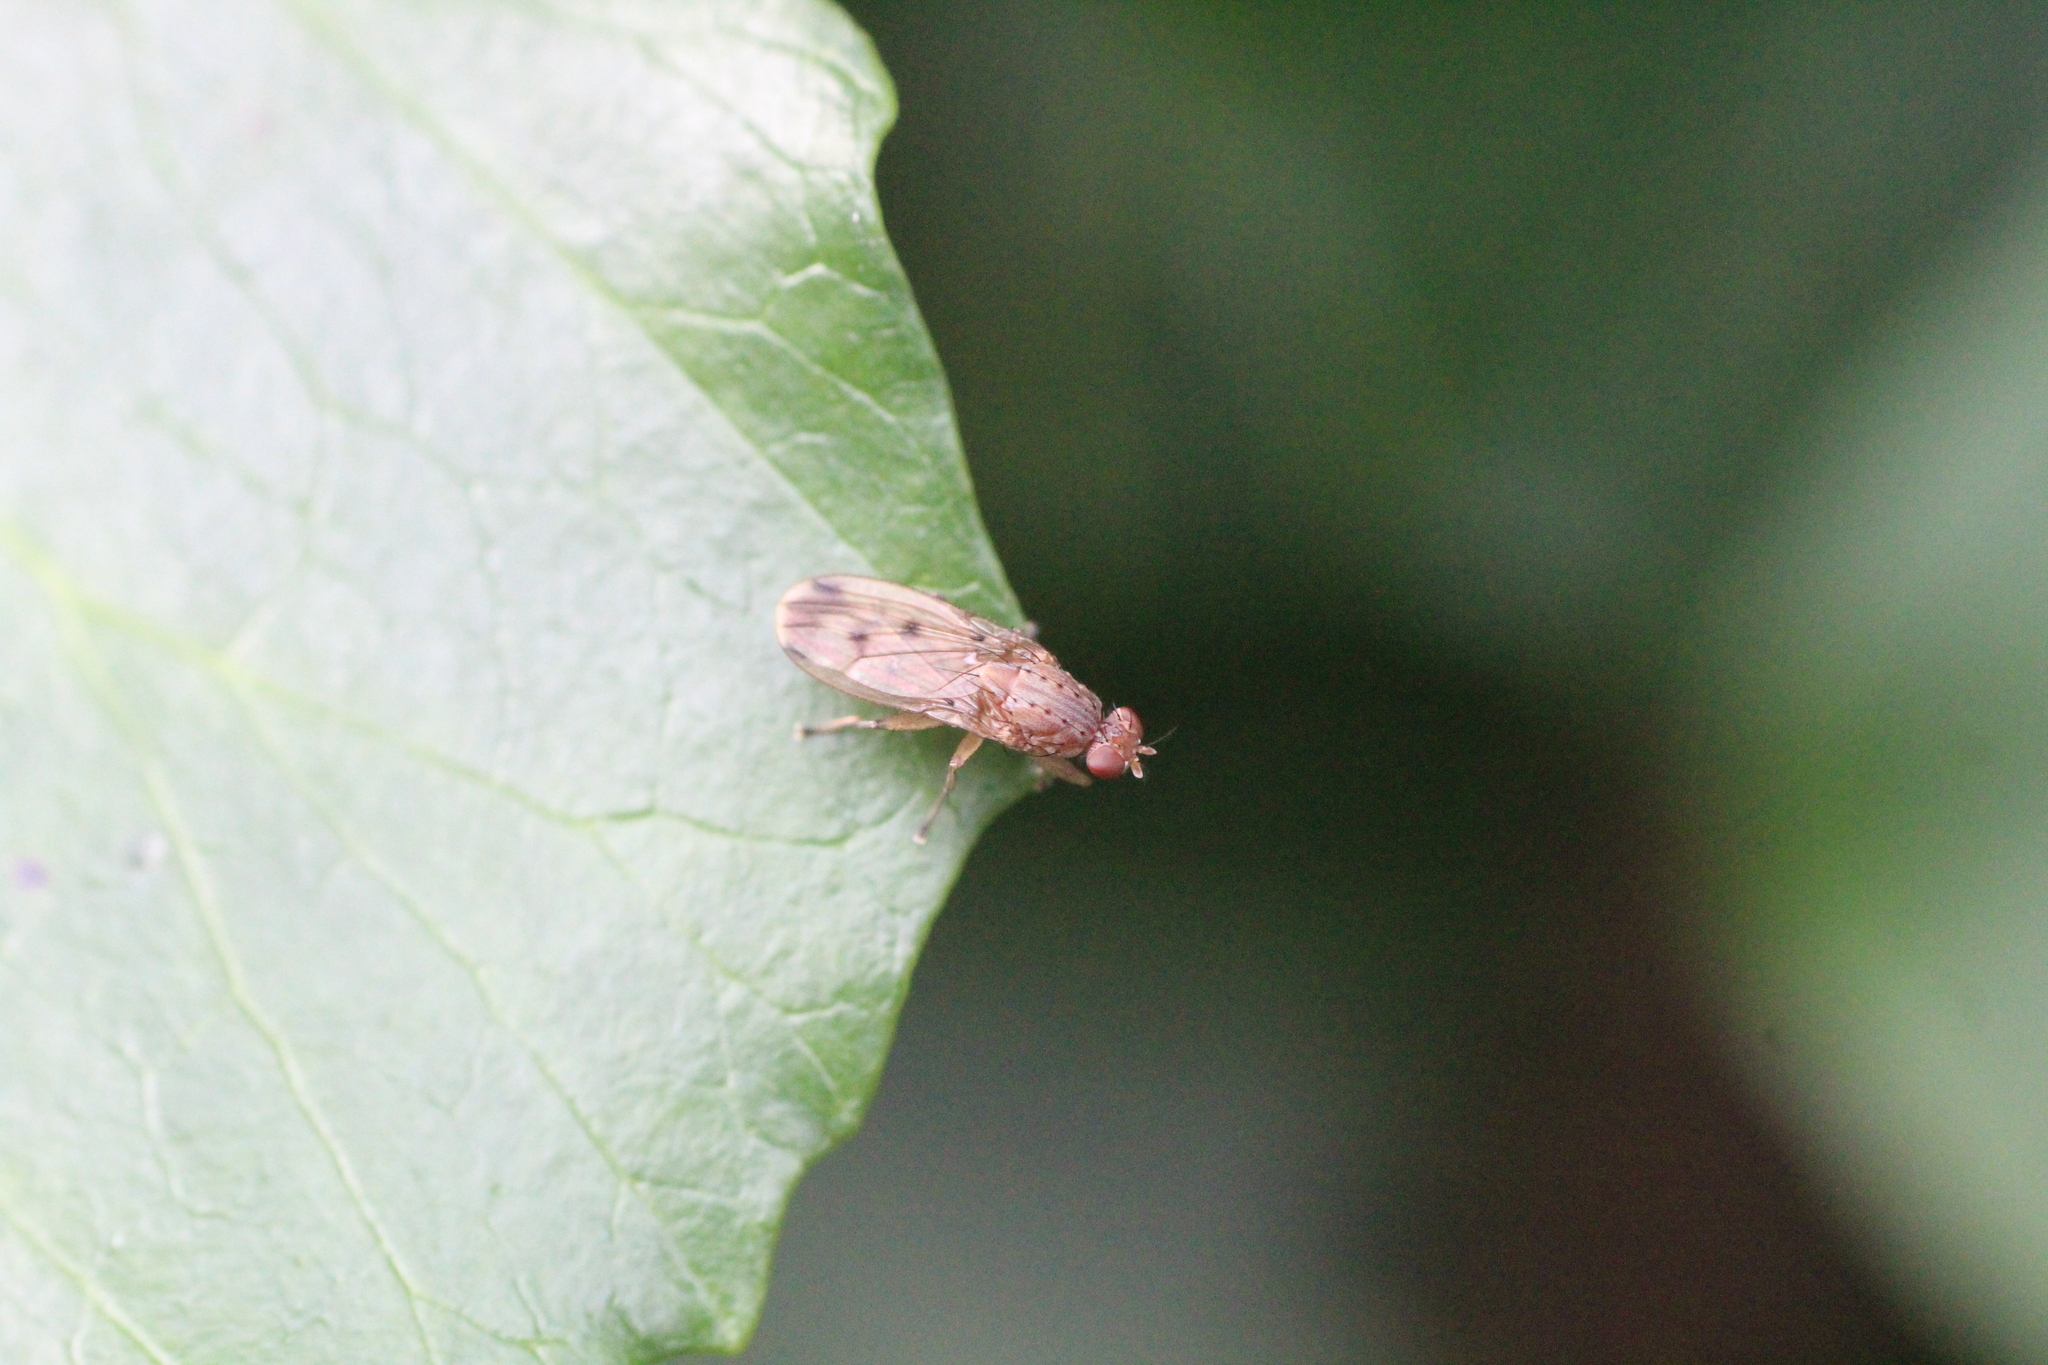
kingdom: Animalia
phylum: Arthropoda
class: Insecta
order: Diptera
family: Heleomyzidae
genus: Suillia
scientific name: Suillia variegata
